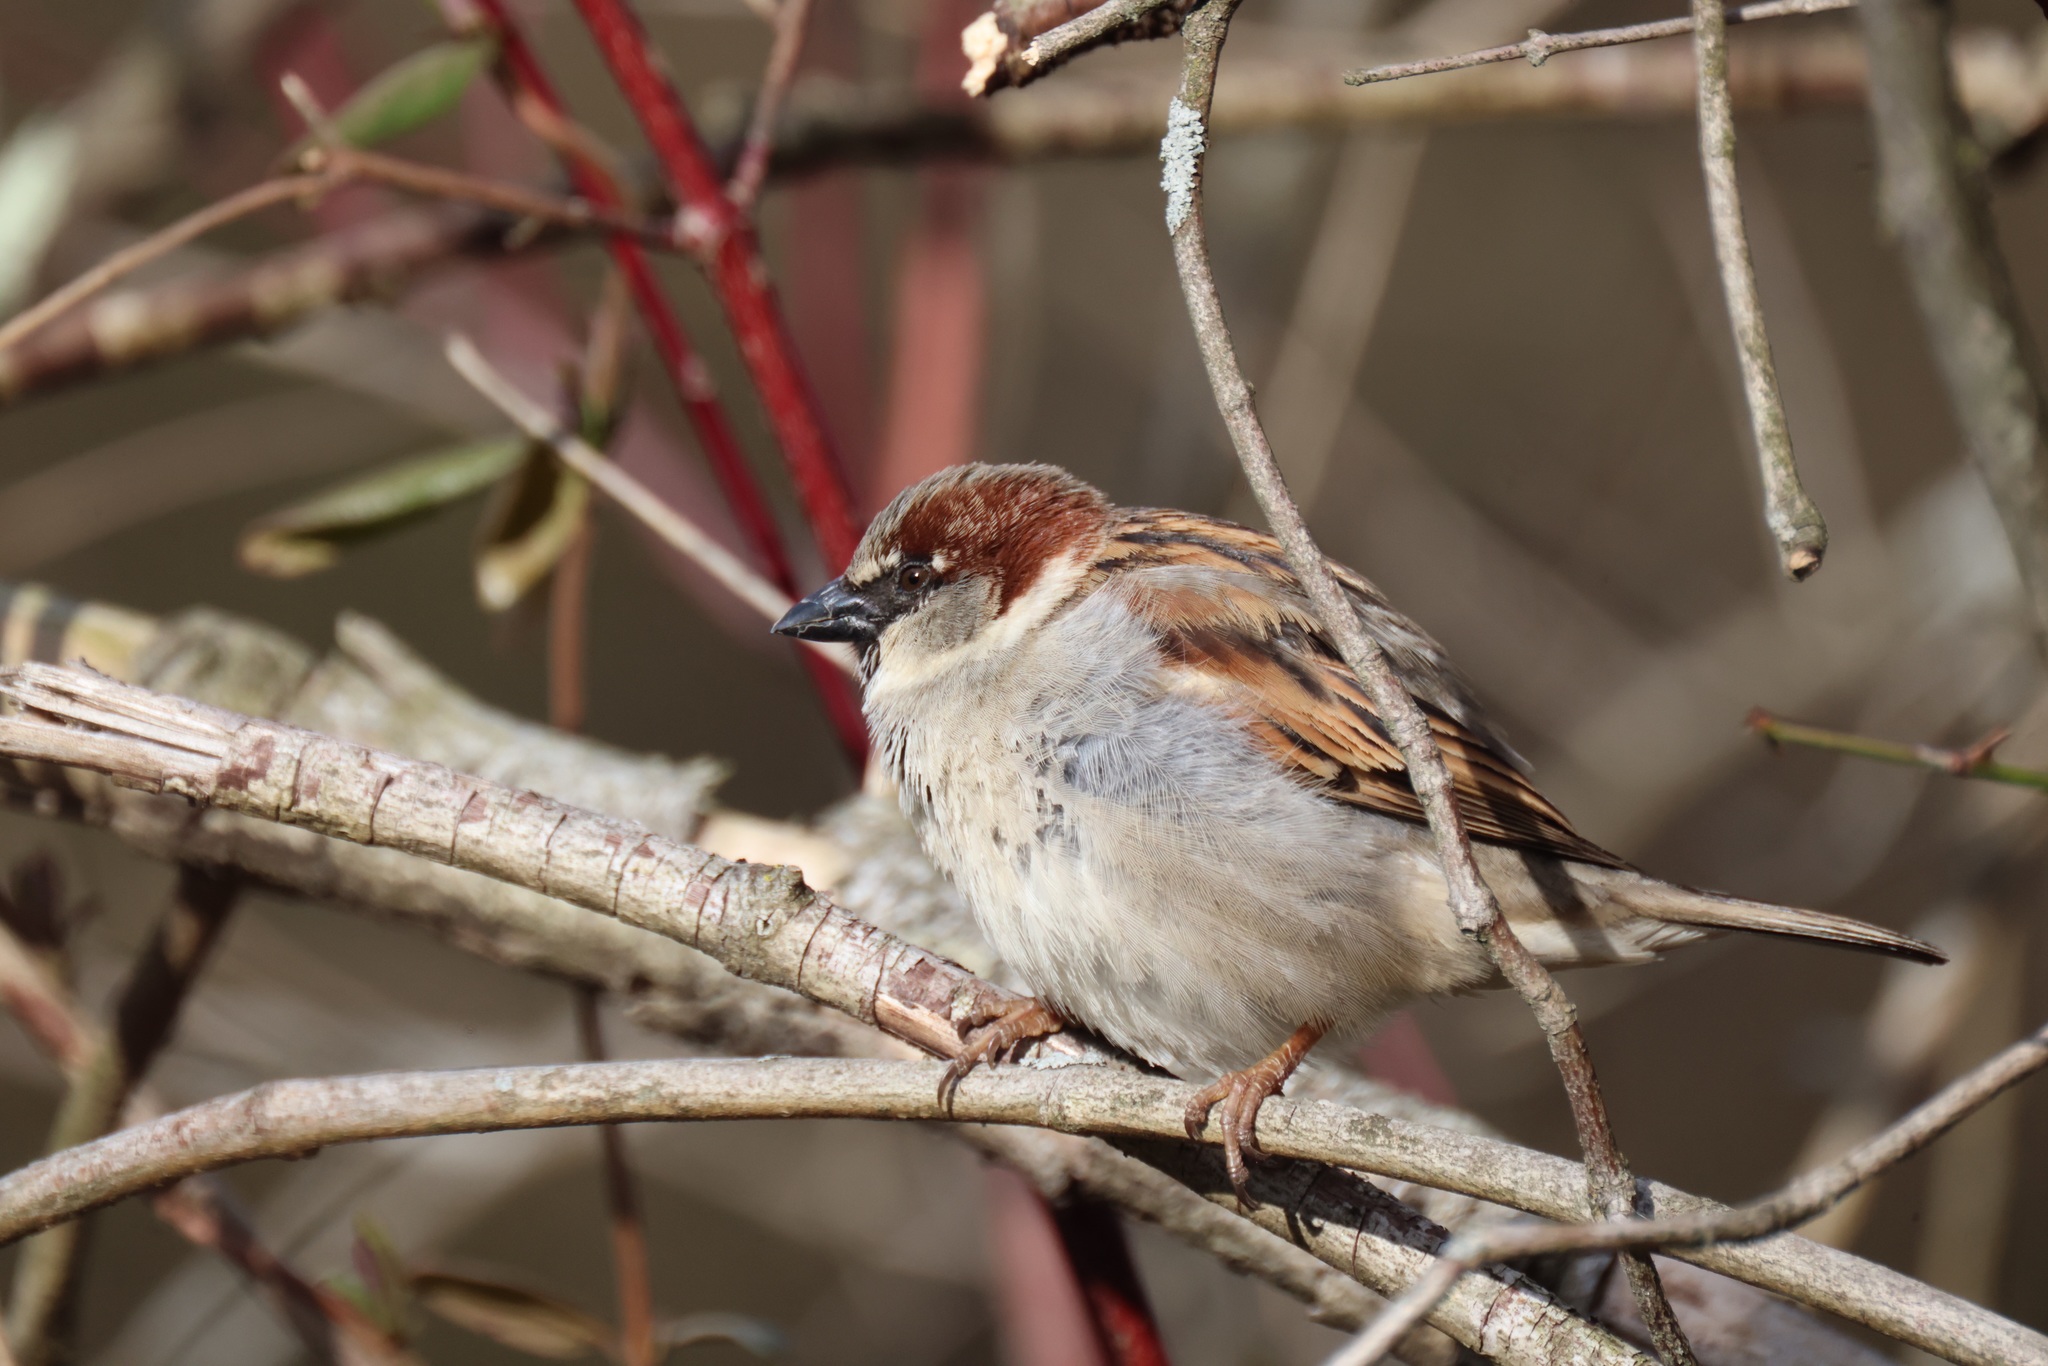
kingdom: Animalia
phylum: Chordata
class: Aves
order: Passeriformes
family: Passeridae
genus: Passer
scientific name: Passer domesticus
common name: House sparrow
